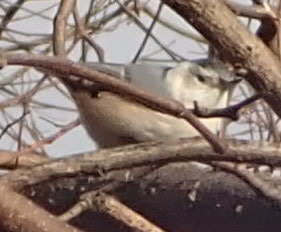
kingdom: Animalia
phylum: Chordata
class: Aves
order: Passeriformes
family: Sittidae
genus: Sitta
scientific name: Sitta carolinensis
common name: White-breasted nuthatch
